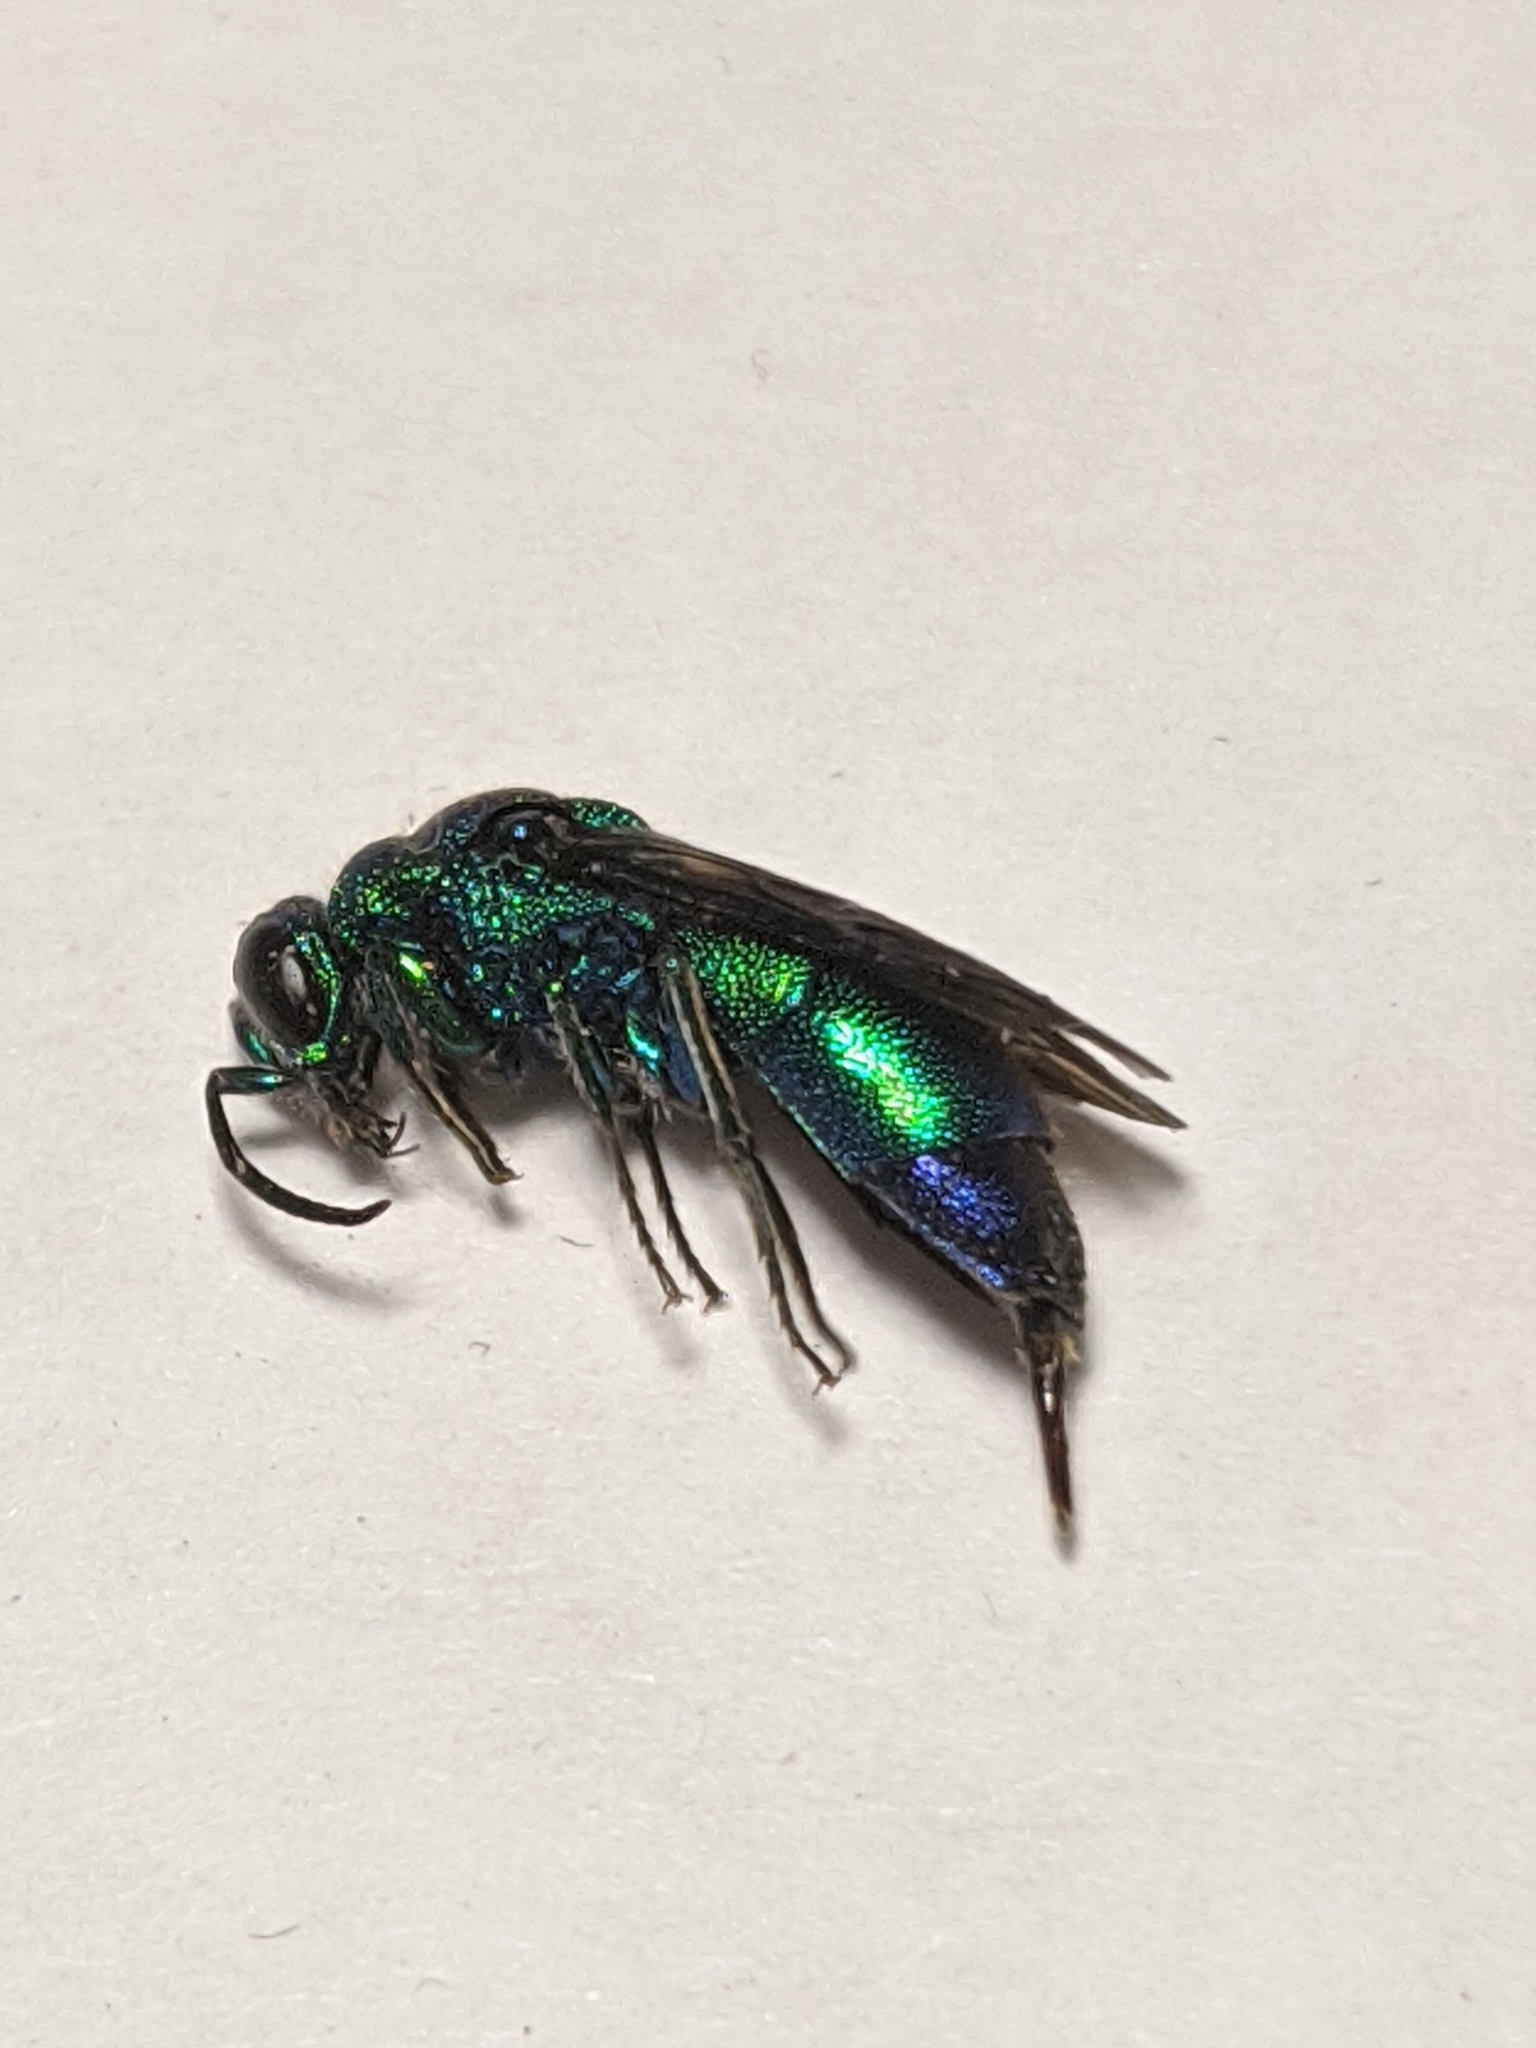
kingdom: Animalia
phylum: Arthropoda
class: Insecta
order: Hymenoptera
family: Chrysididae
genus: Chrysis
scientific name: Chrysis angolensis
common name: Cuckoo wasp
